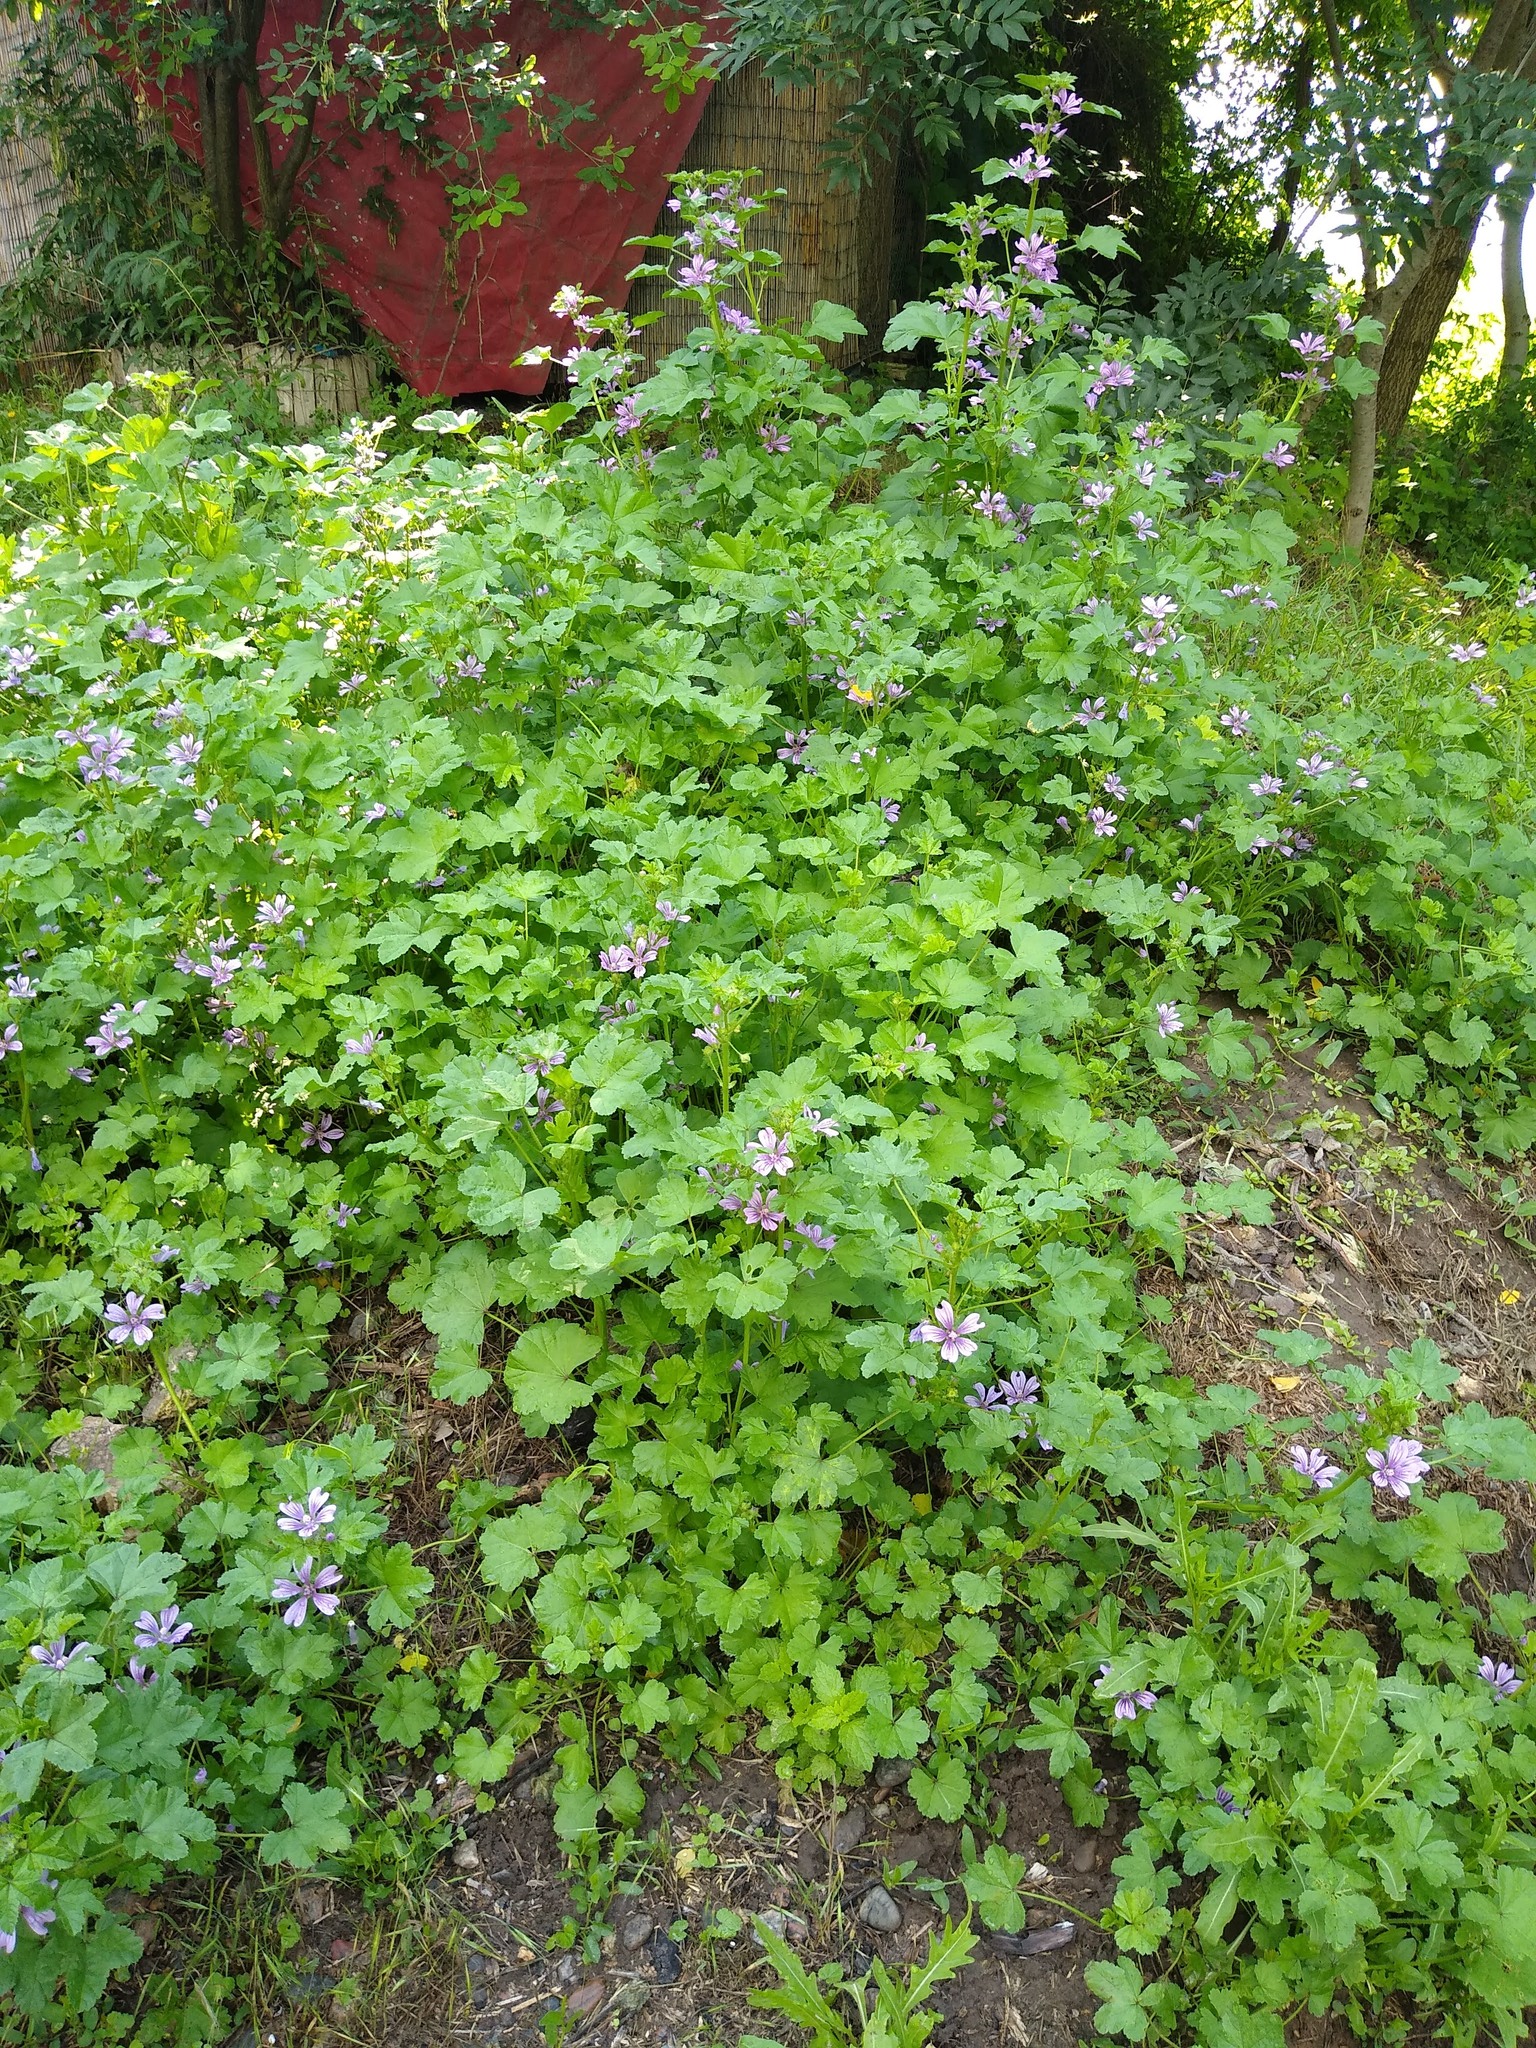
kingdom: Plantae
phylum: Tracheophyta
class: Magnoliopsida
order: Malvales
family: Malvaceae
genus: Malva
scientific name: Malva sylvestris
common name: Common mallow
